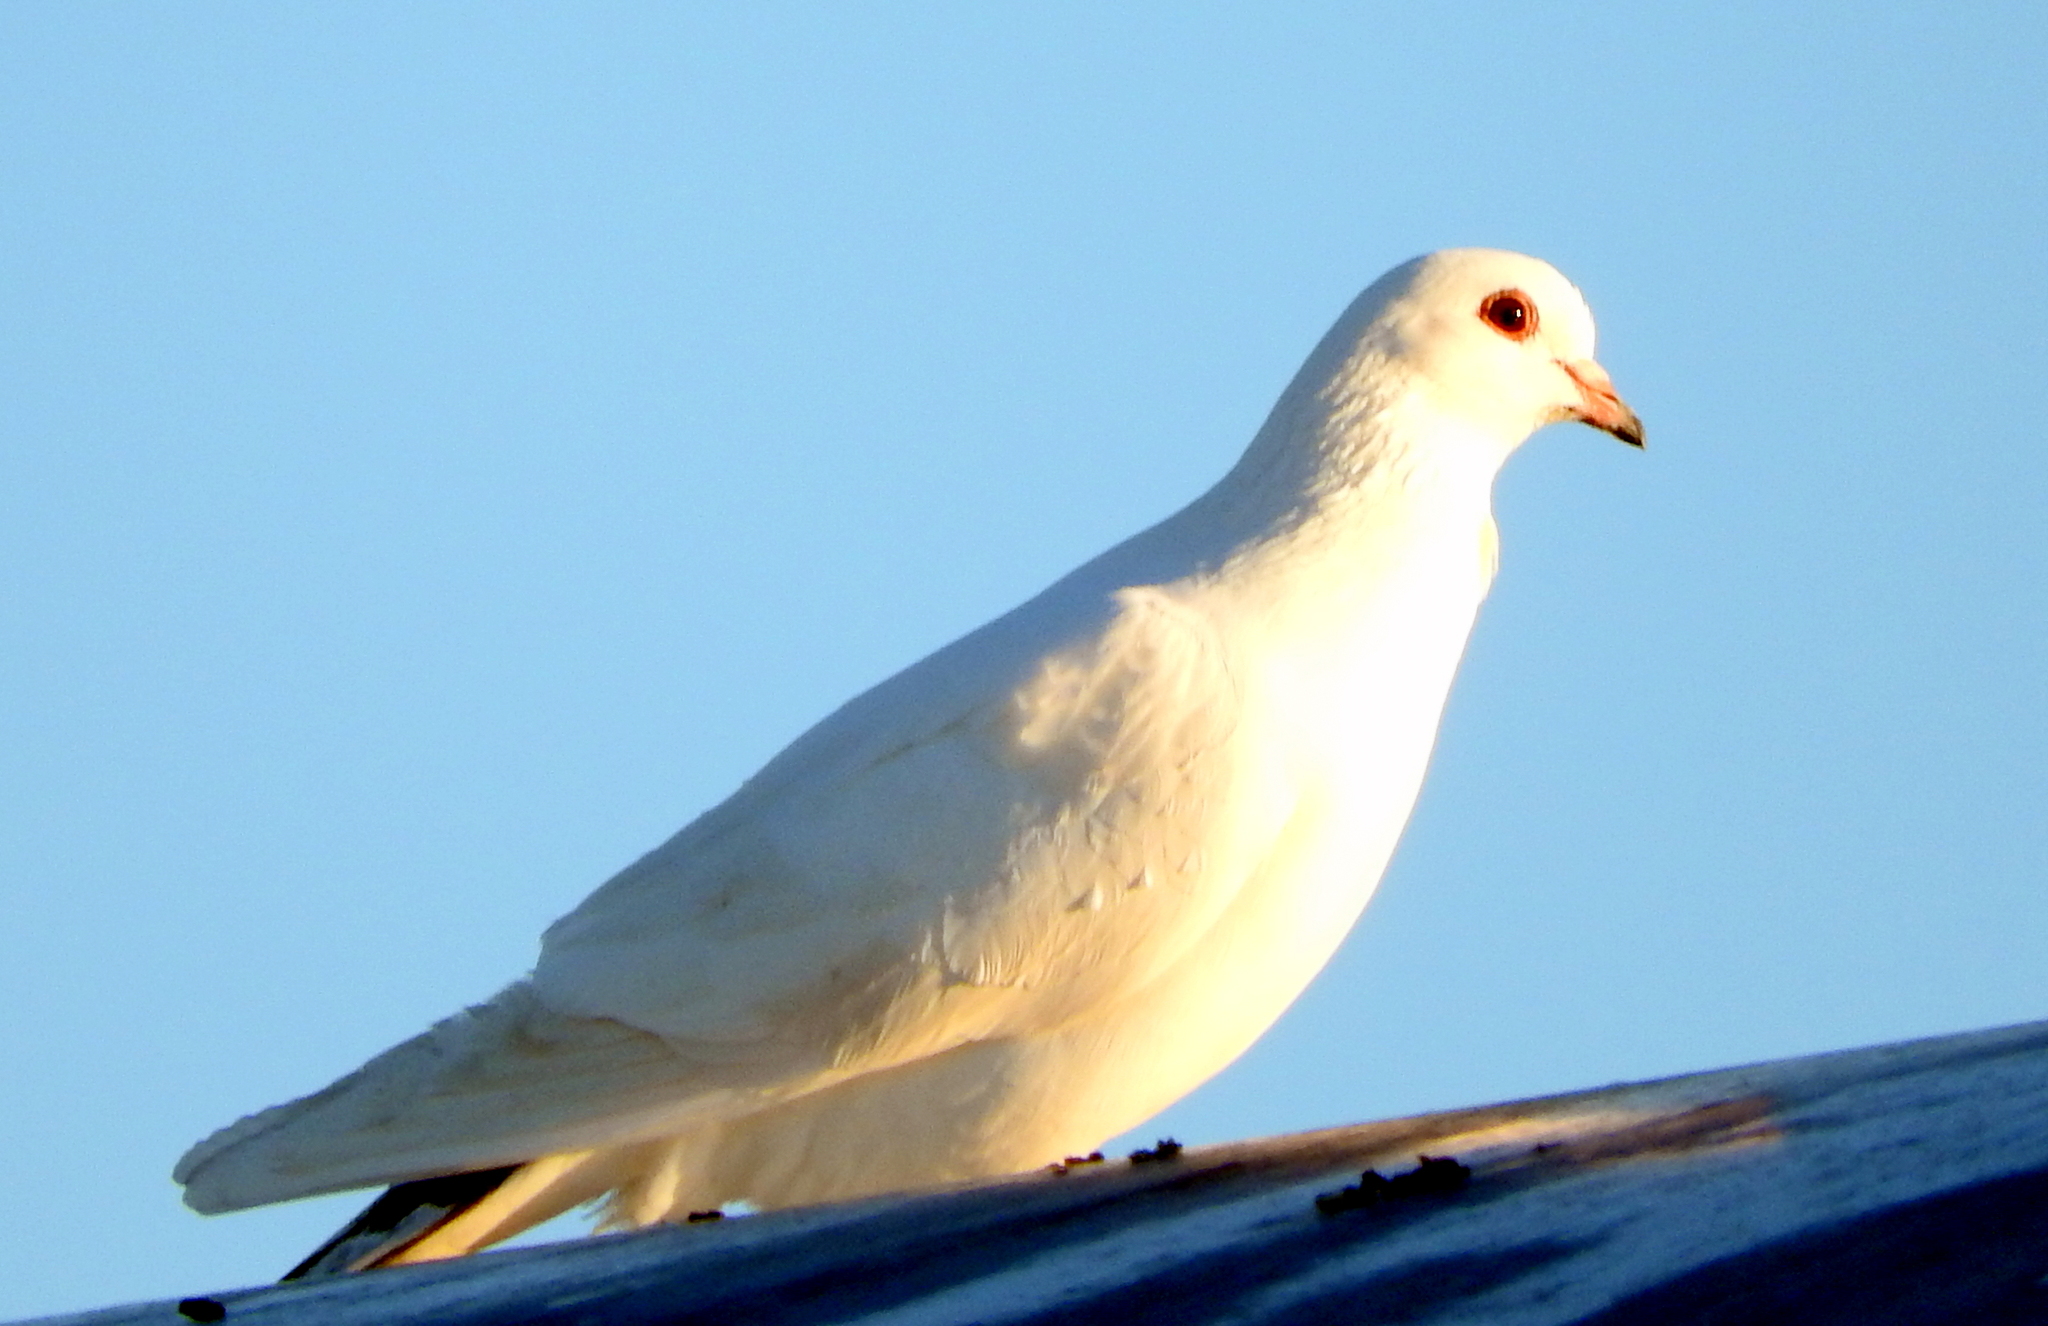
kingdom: Animalia
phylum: Chordata
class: Aves
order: Columbiformes
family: Columbidae
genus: Columba
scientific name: Columba livia
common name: Rock pigeon
